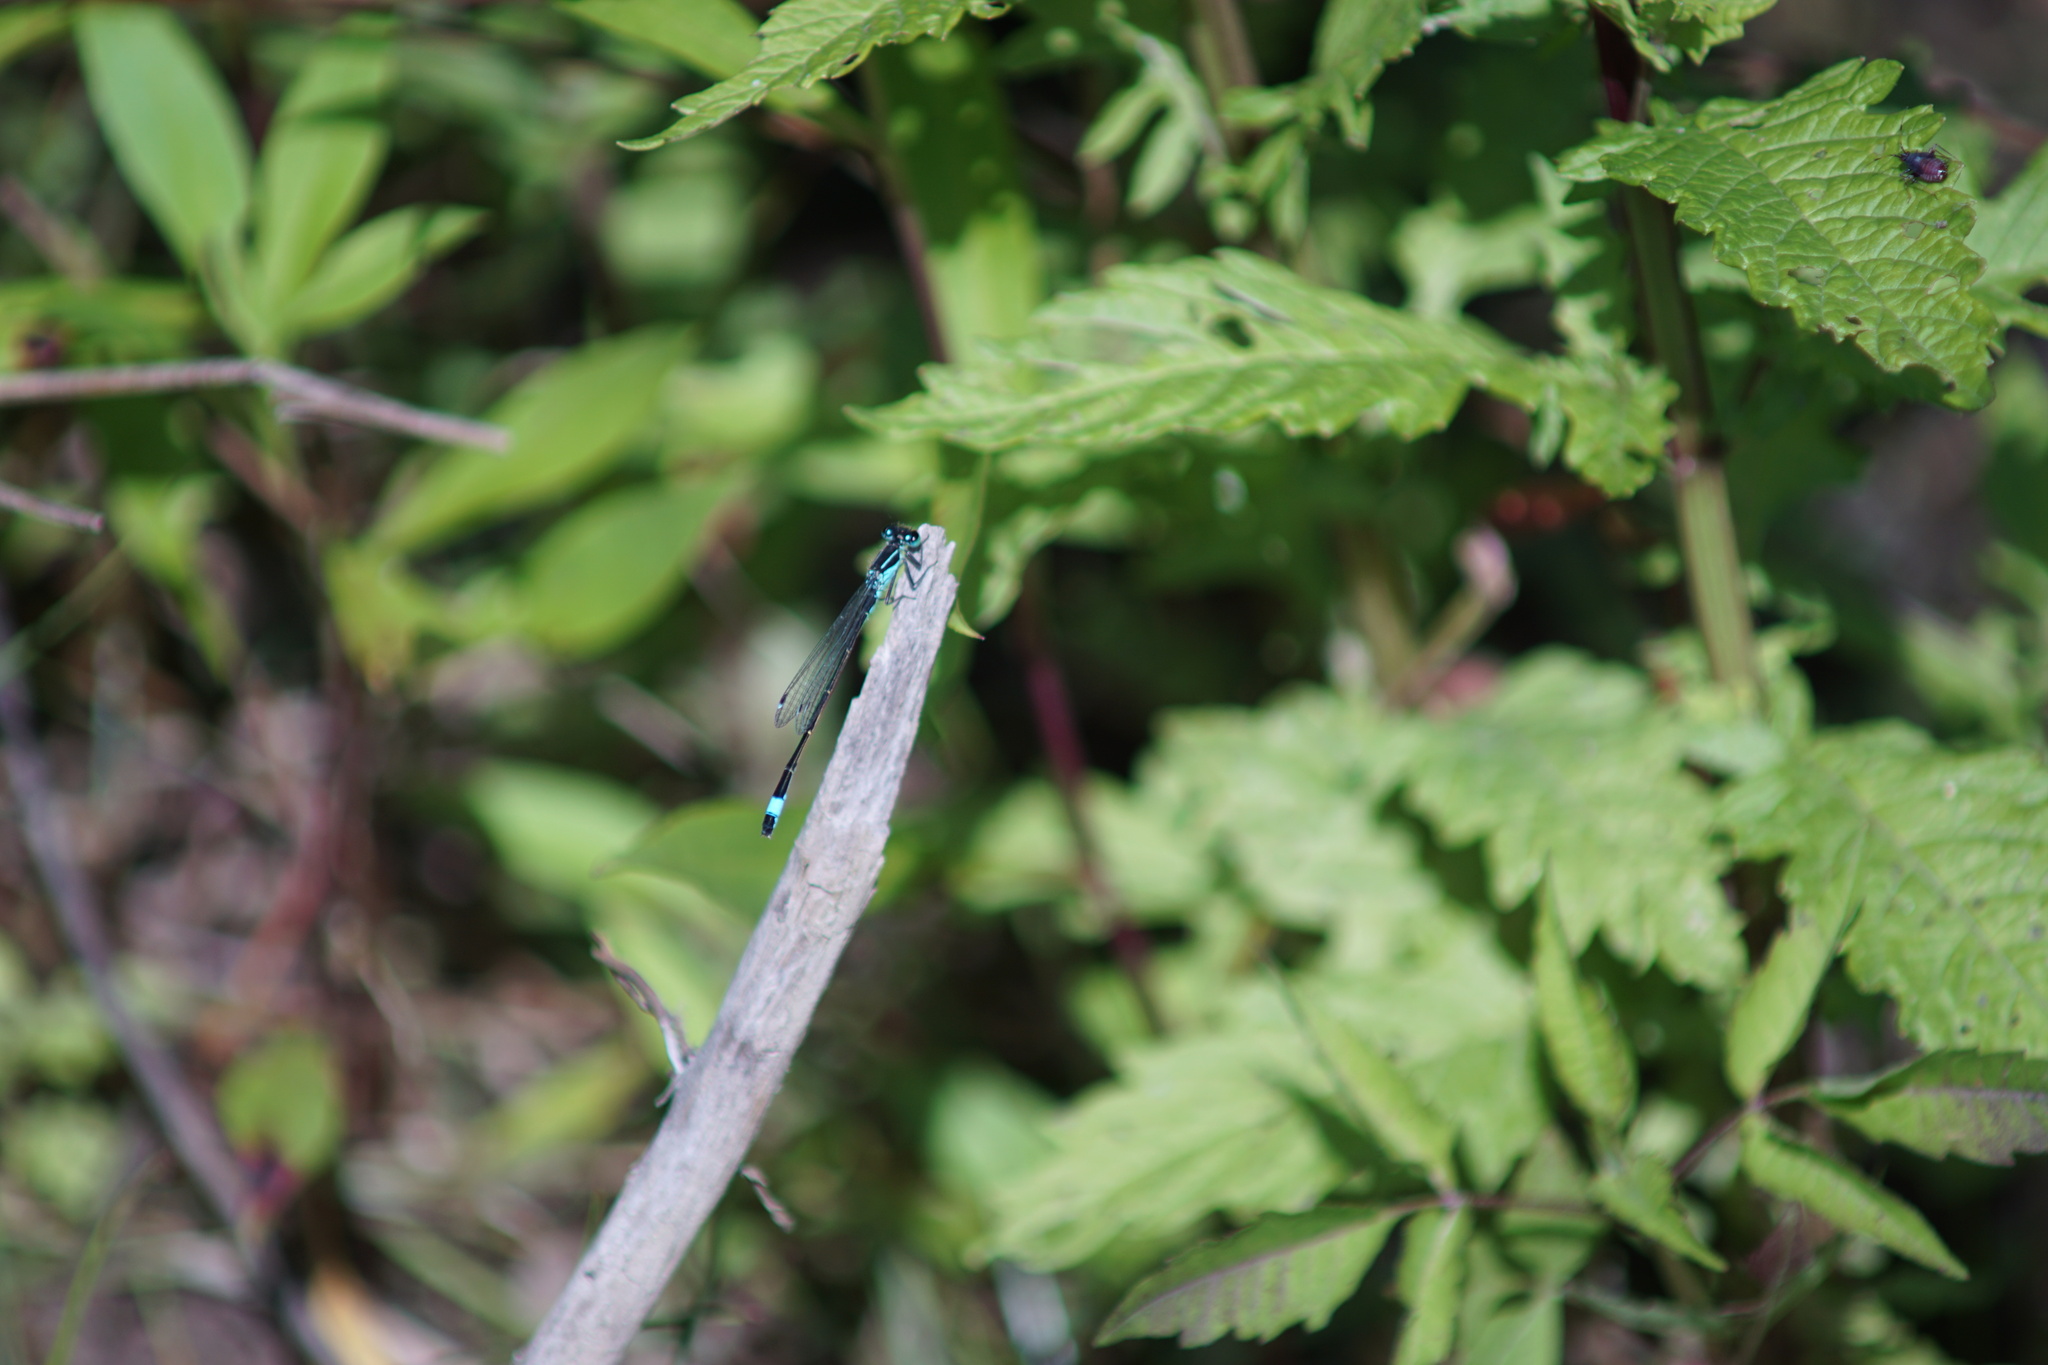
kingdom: Animalia
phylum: Arthropoda
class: Insecta
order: Odonata
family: Coenagrionidae
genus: Ischnura
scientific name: Ischnura elegans
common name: Blue-tailed damselfly
